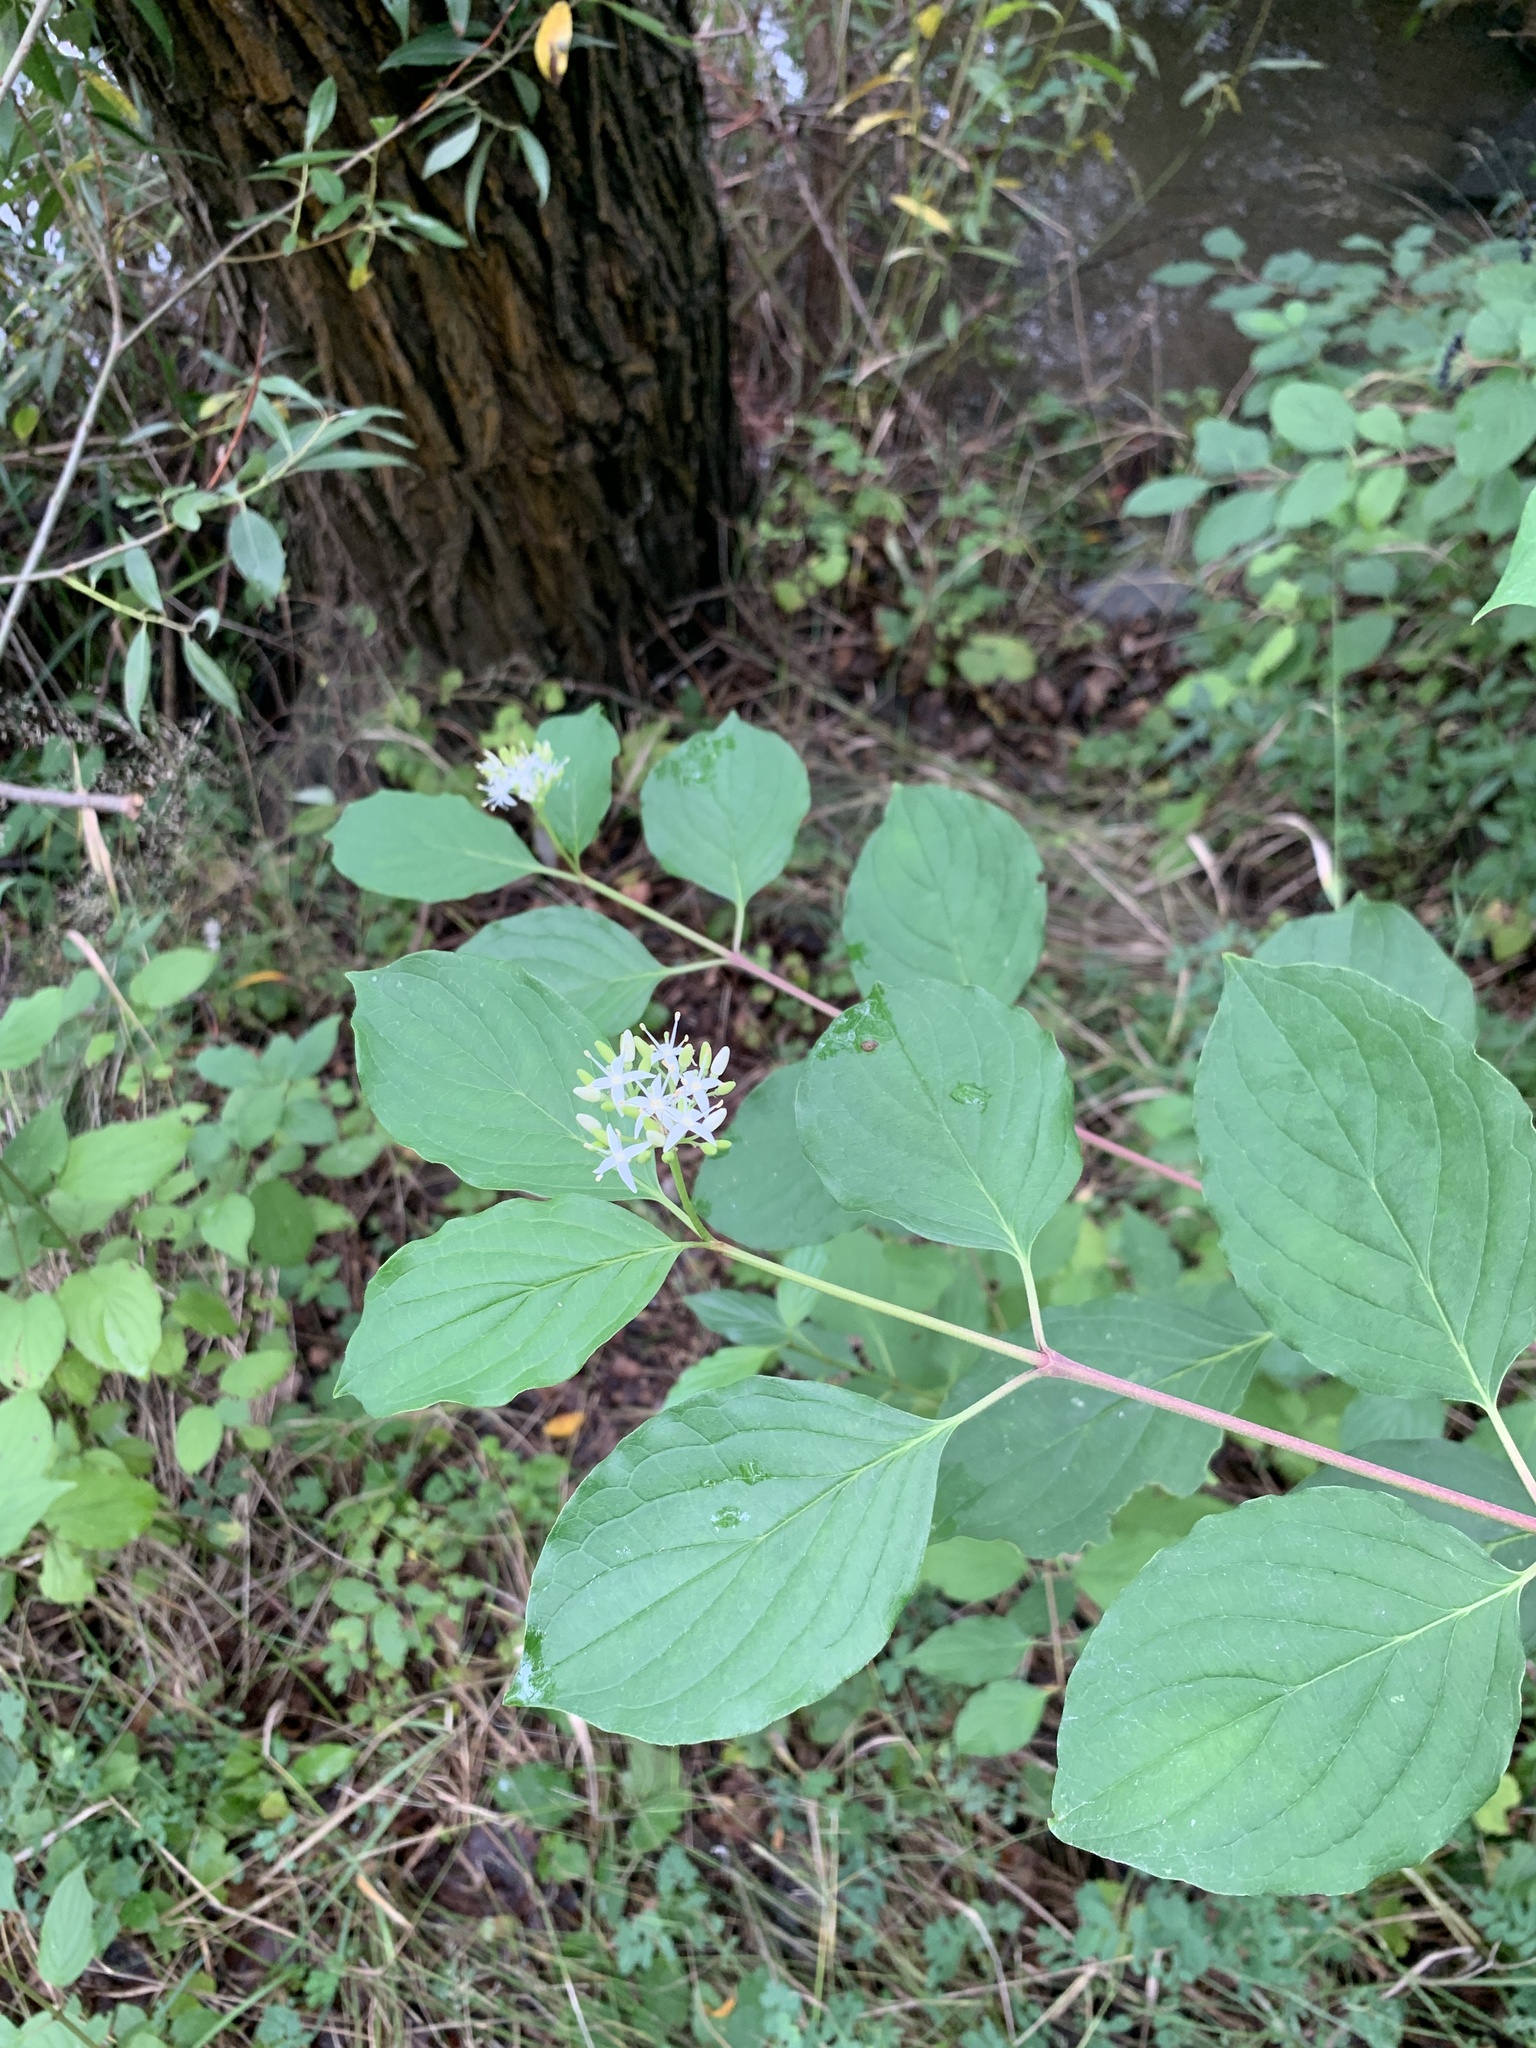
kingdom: Plantae
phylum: Tracheophyta
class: Magnoliopsida
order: Cornales
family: Cornaceae
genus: Cornus
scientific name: Cornus sanguinea
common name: Dogwood
